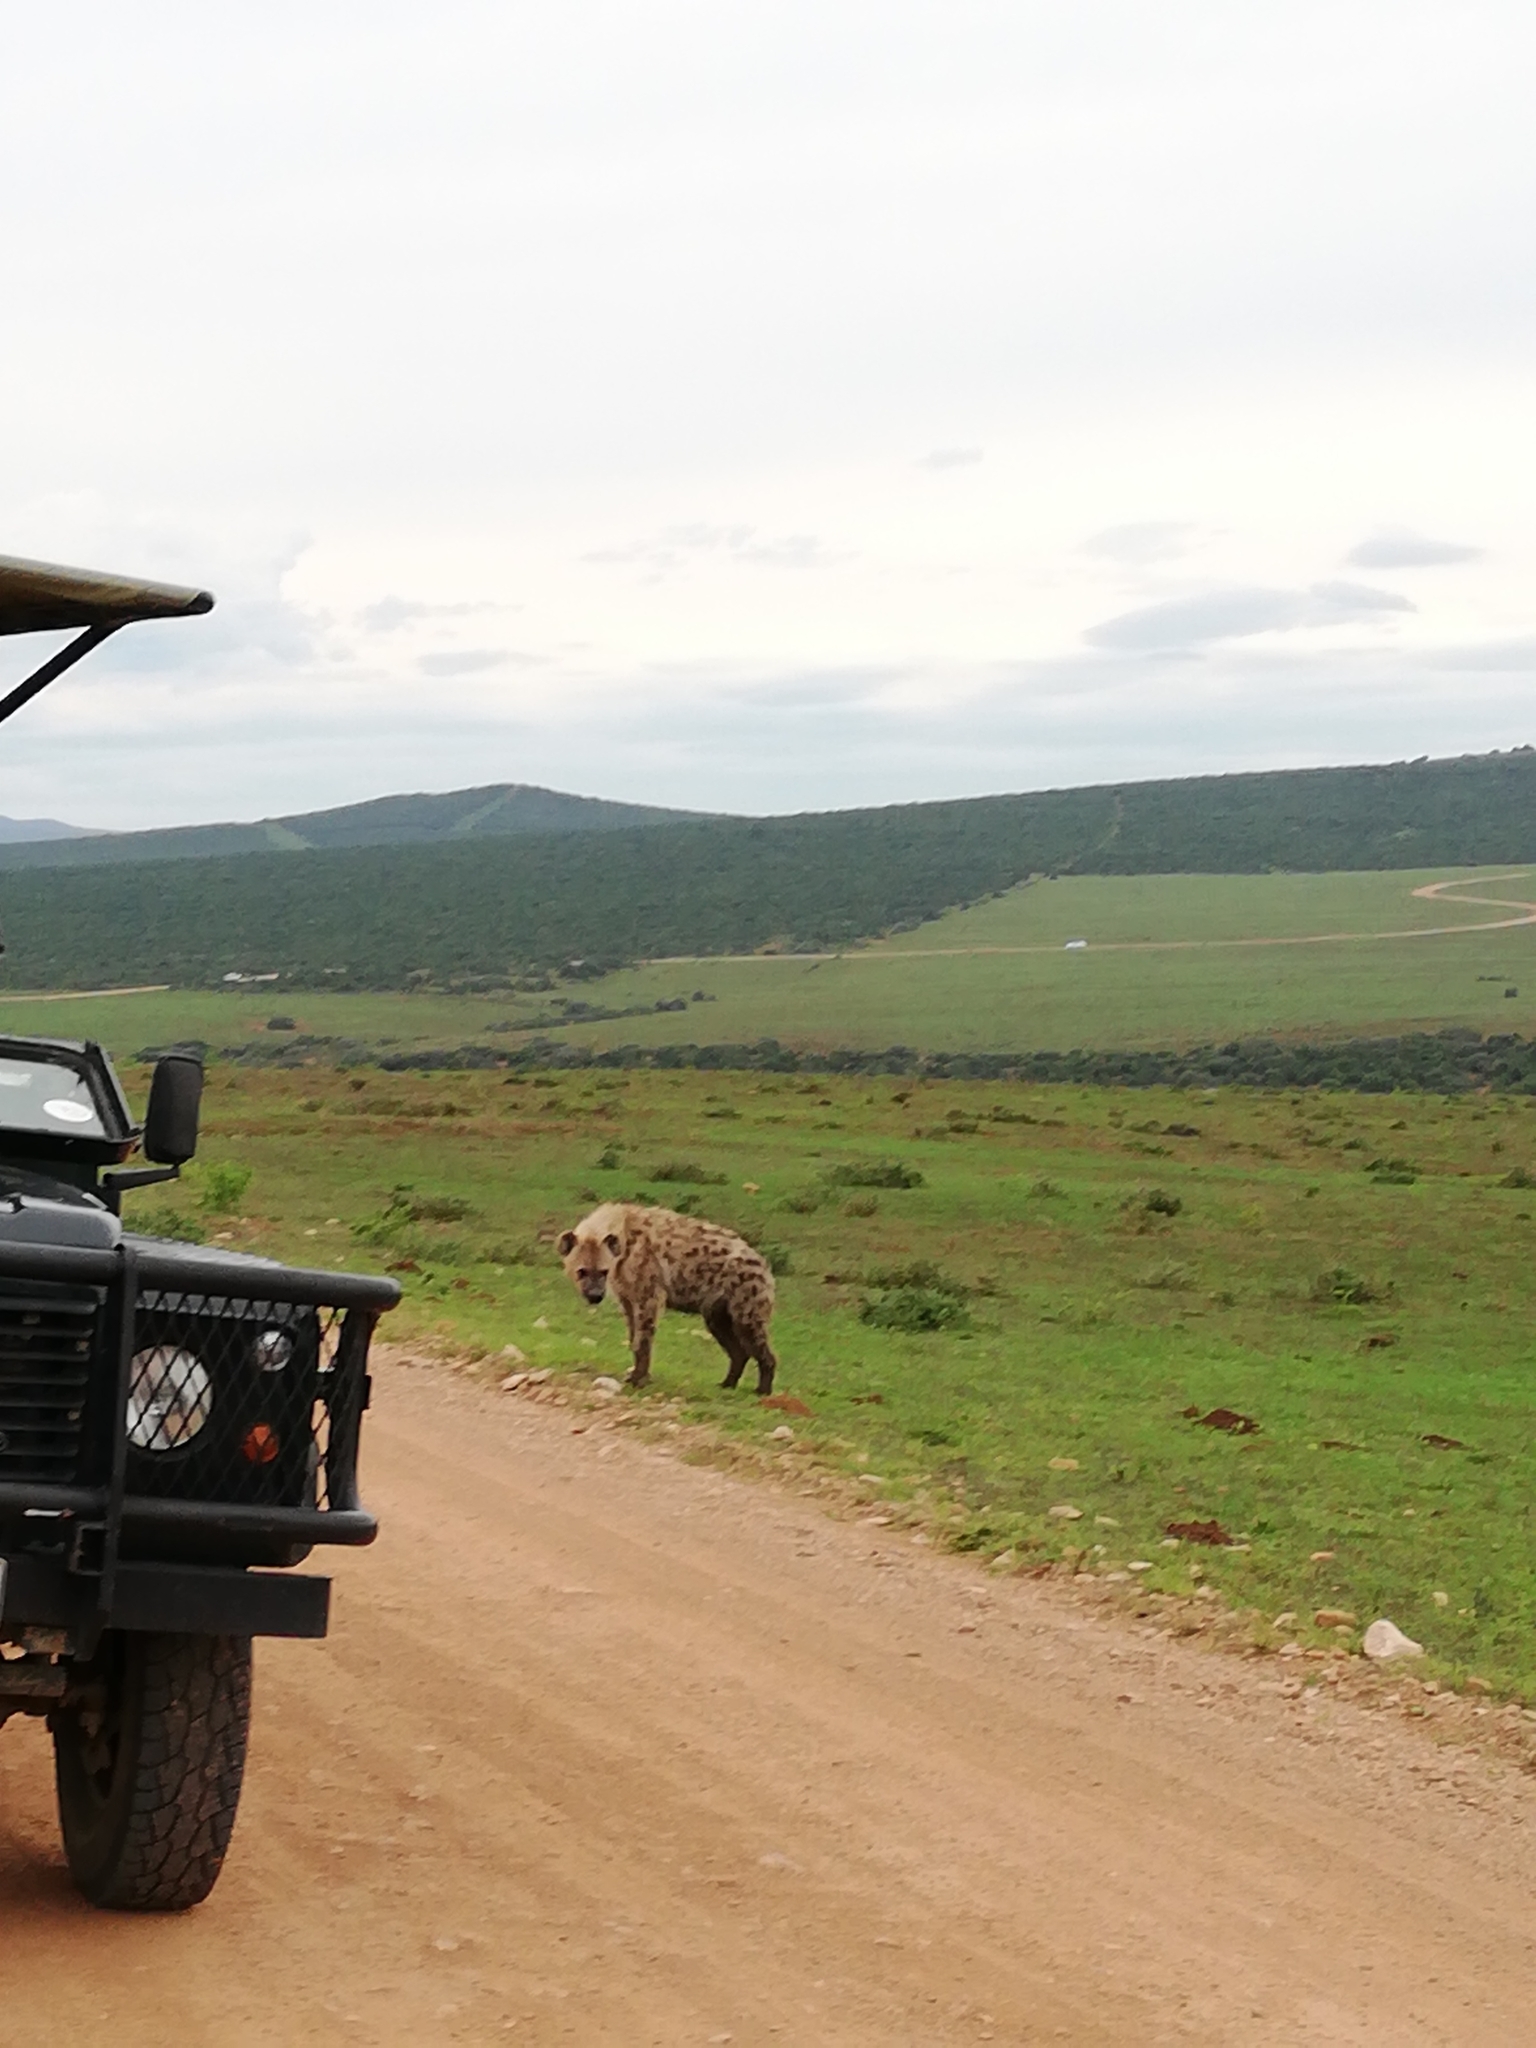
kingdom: Animalia
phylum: Chordata
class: Mammalia
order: Carnivora
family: Hyaenidae
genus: Crocuta
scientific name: Crocuta crocuta
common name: Spotted hyaena
